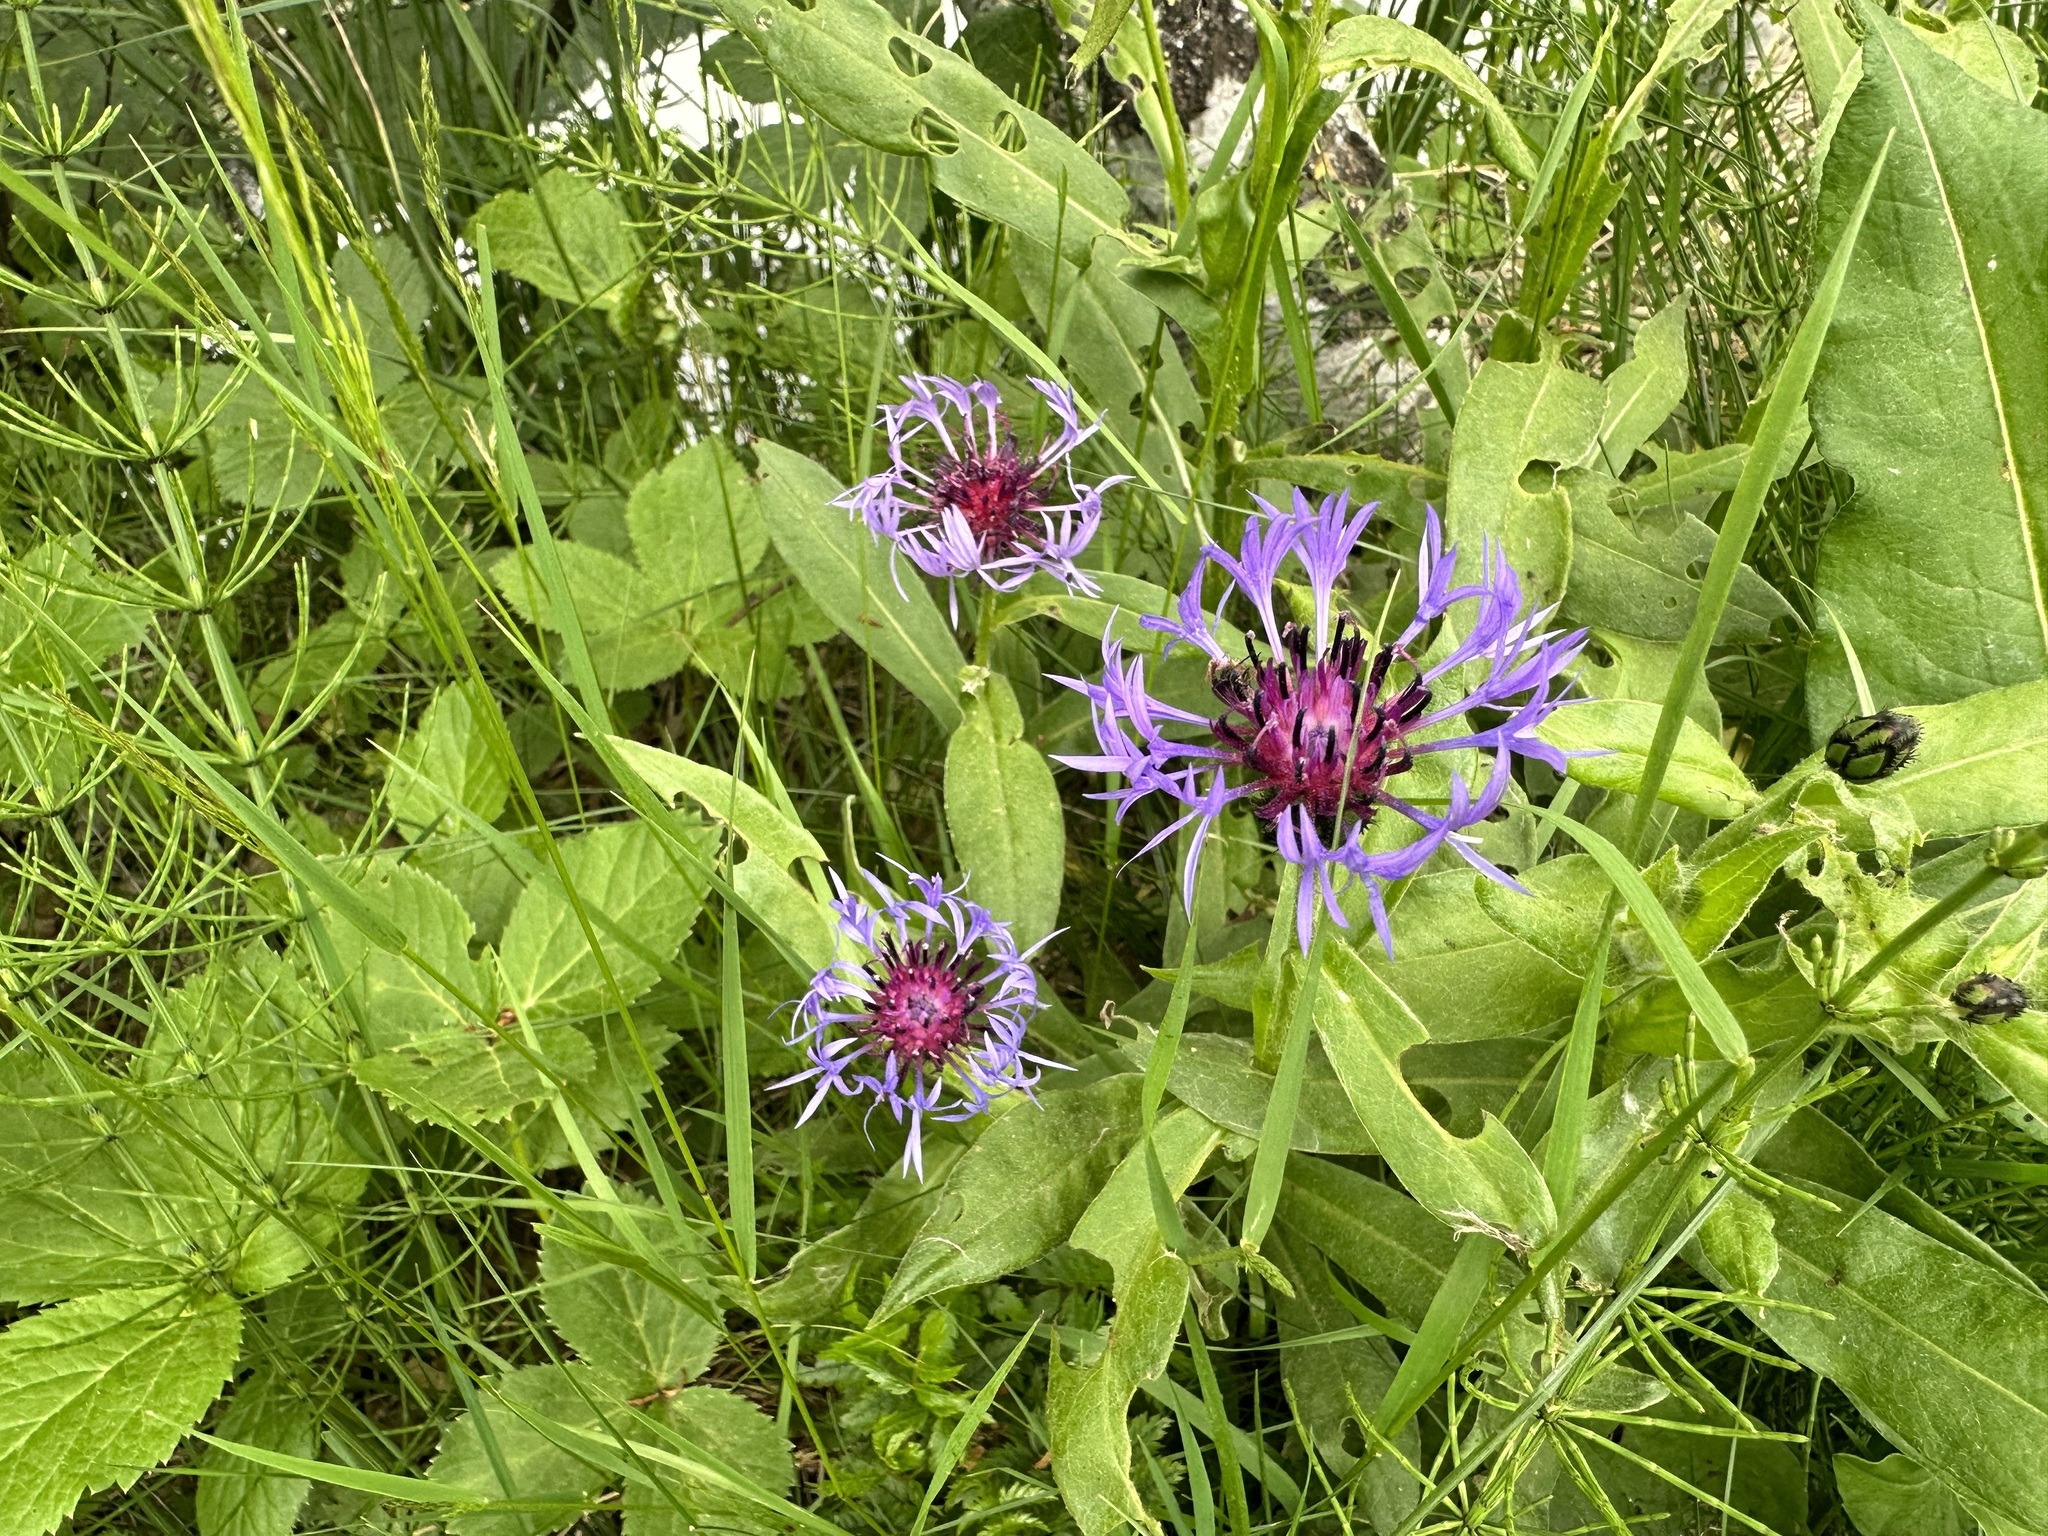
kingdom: Plantae
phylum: Tracheophyta
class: Magnoliopsida
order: Asterales
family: Asteraceae
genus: Centaurea
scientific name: Centaurea montana
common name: Perennial cornflower
